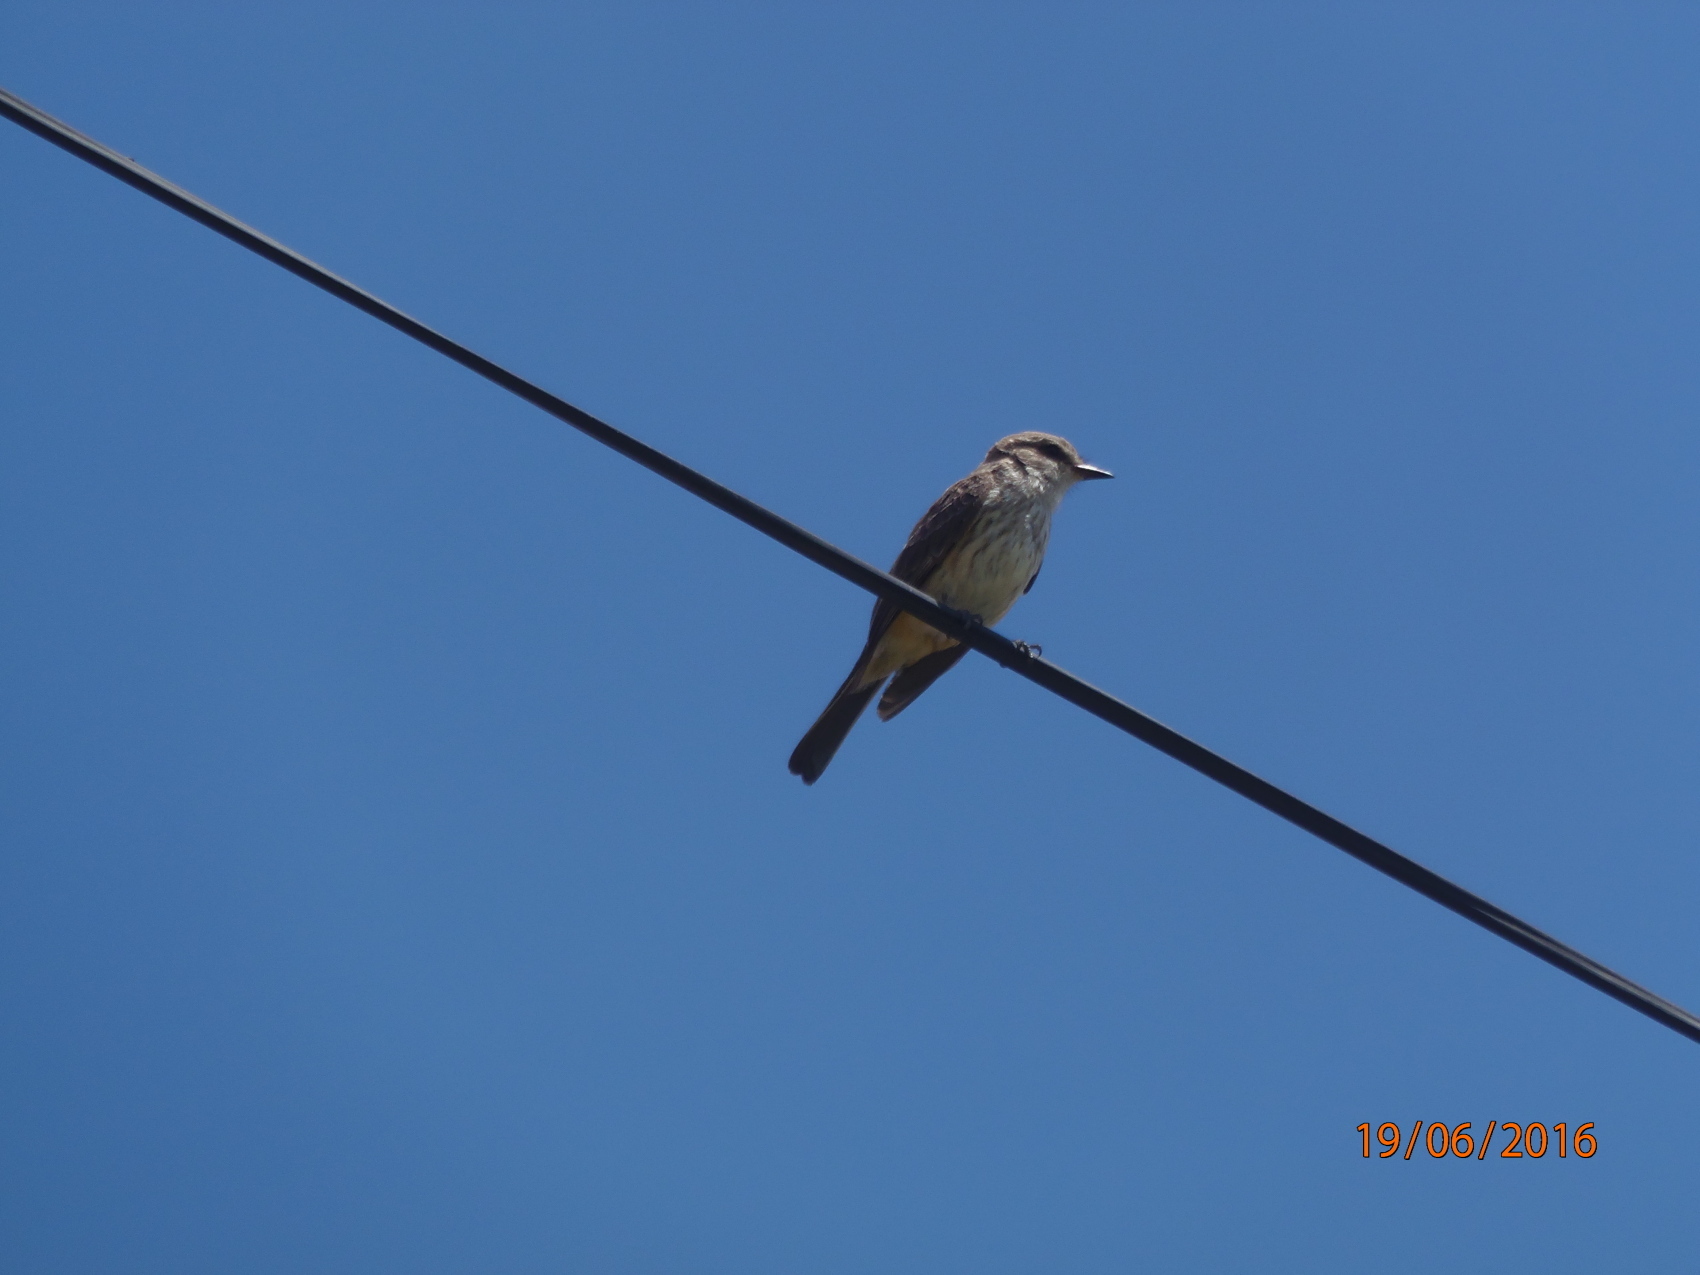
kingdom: Animalia
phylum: Chordata
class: Aves
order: Passeriformes
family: Tyrannidae
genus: Pyrocephalus
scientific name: Pyrocephalus rubinus
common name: Vermilion flycatcher
